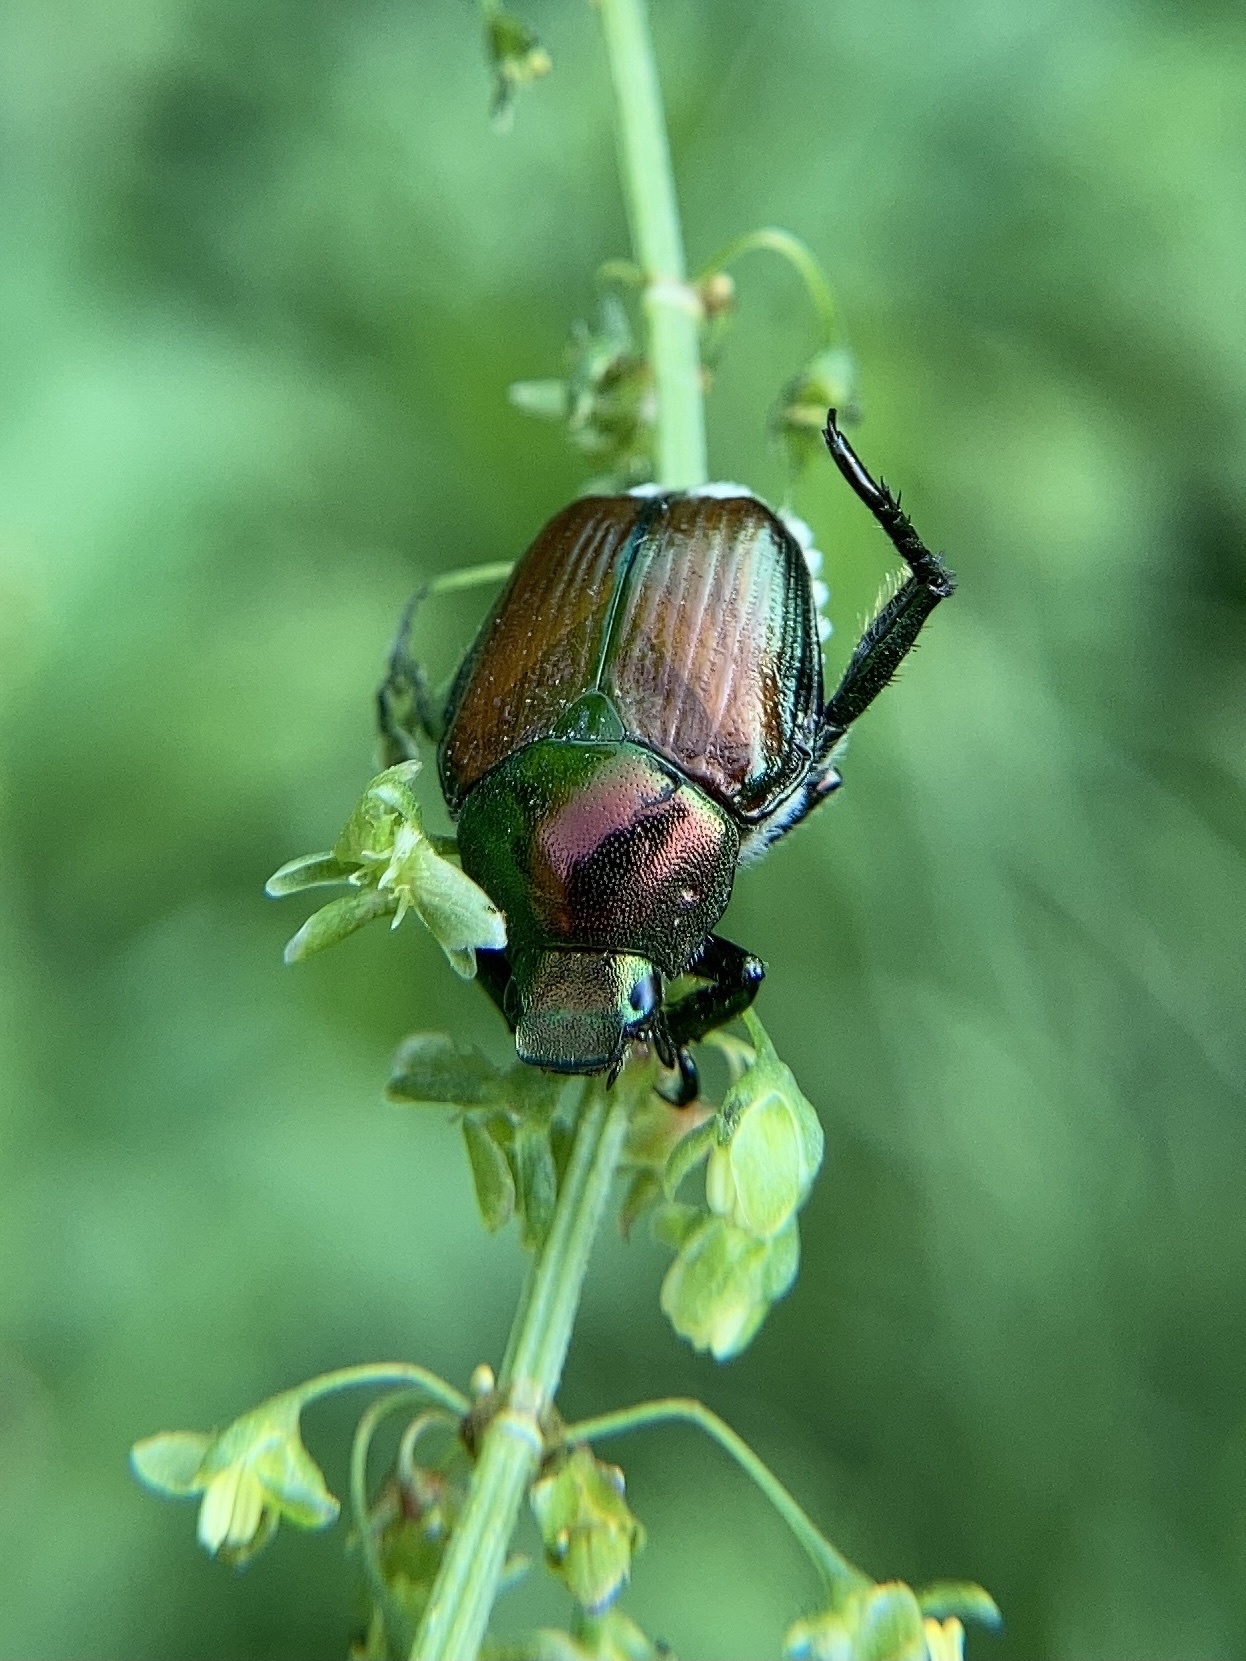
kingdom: Animalia
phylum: Arthropoda
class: Insecta
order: Coleoptera
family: Scarabaeidae
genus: Popillia
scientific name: Popillia japonica
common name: Japanese beetle
